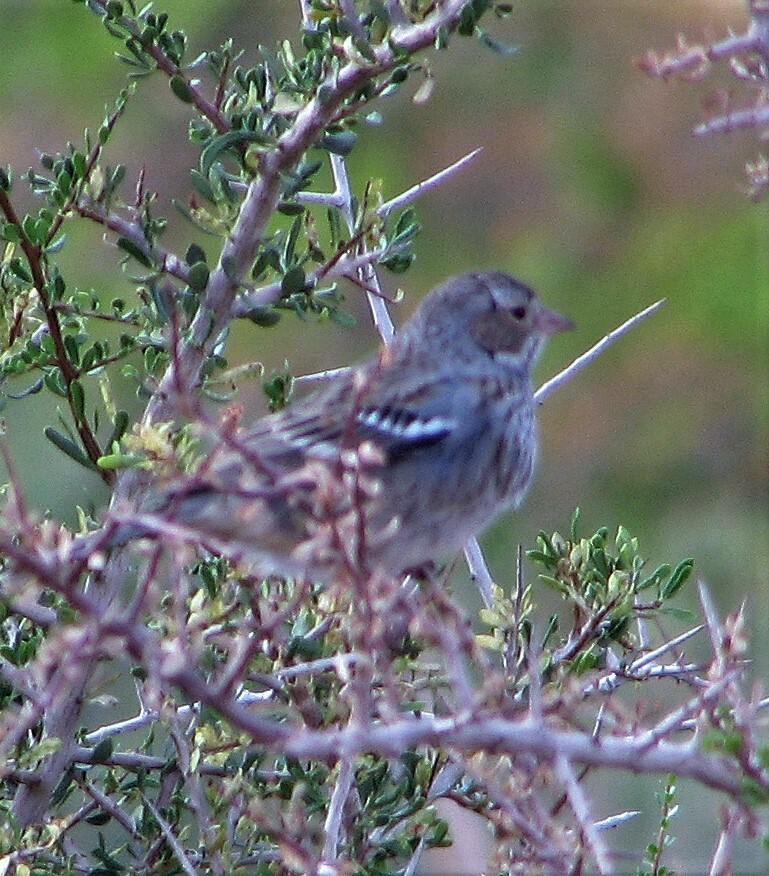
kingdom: Animalia
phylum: Chordata
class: Aves
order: Passeriformes
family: Thraupidae
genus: Rhopospina
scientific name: Rhopospina fruticeti
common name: Mourning sierra finch
